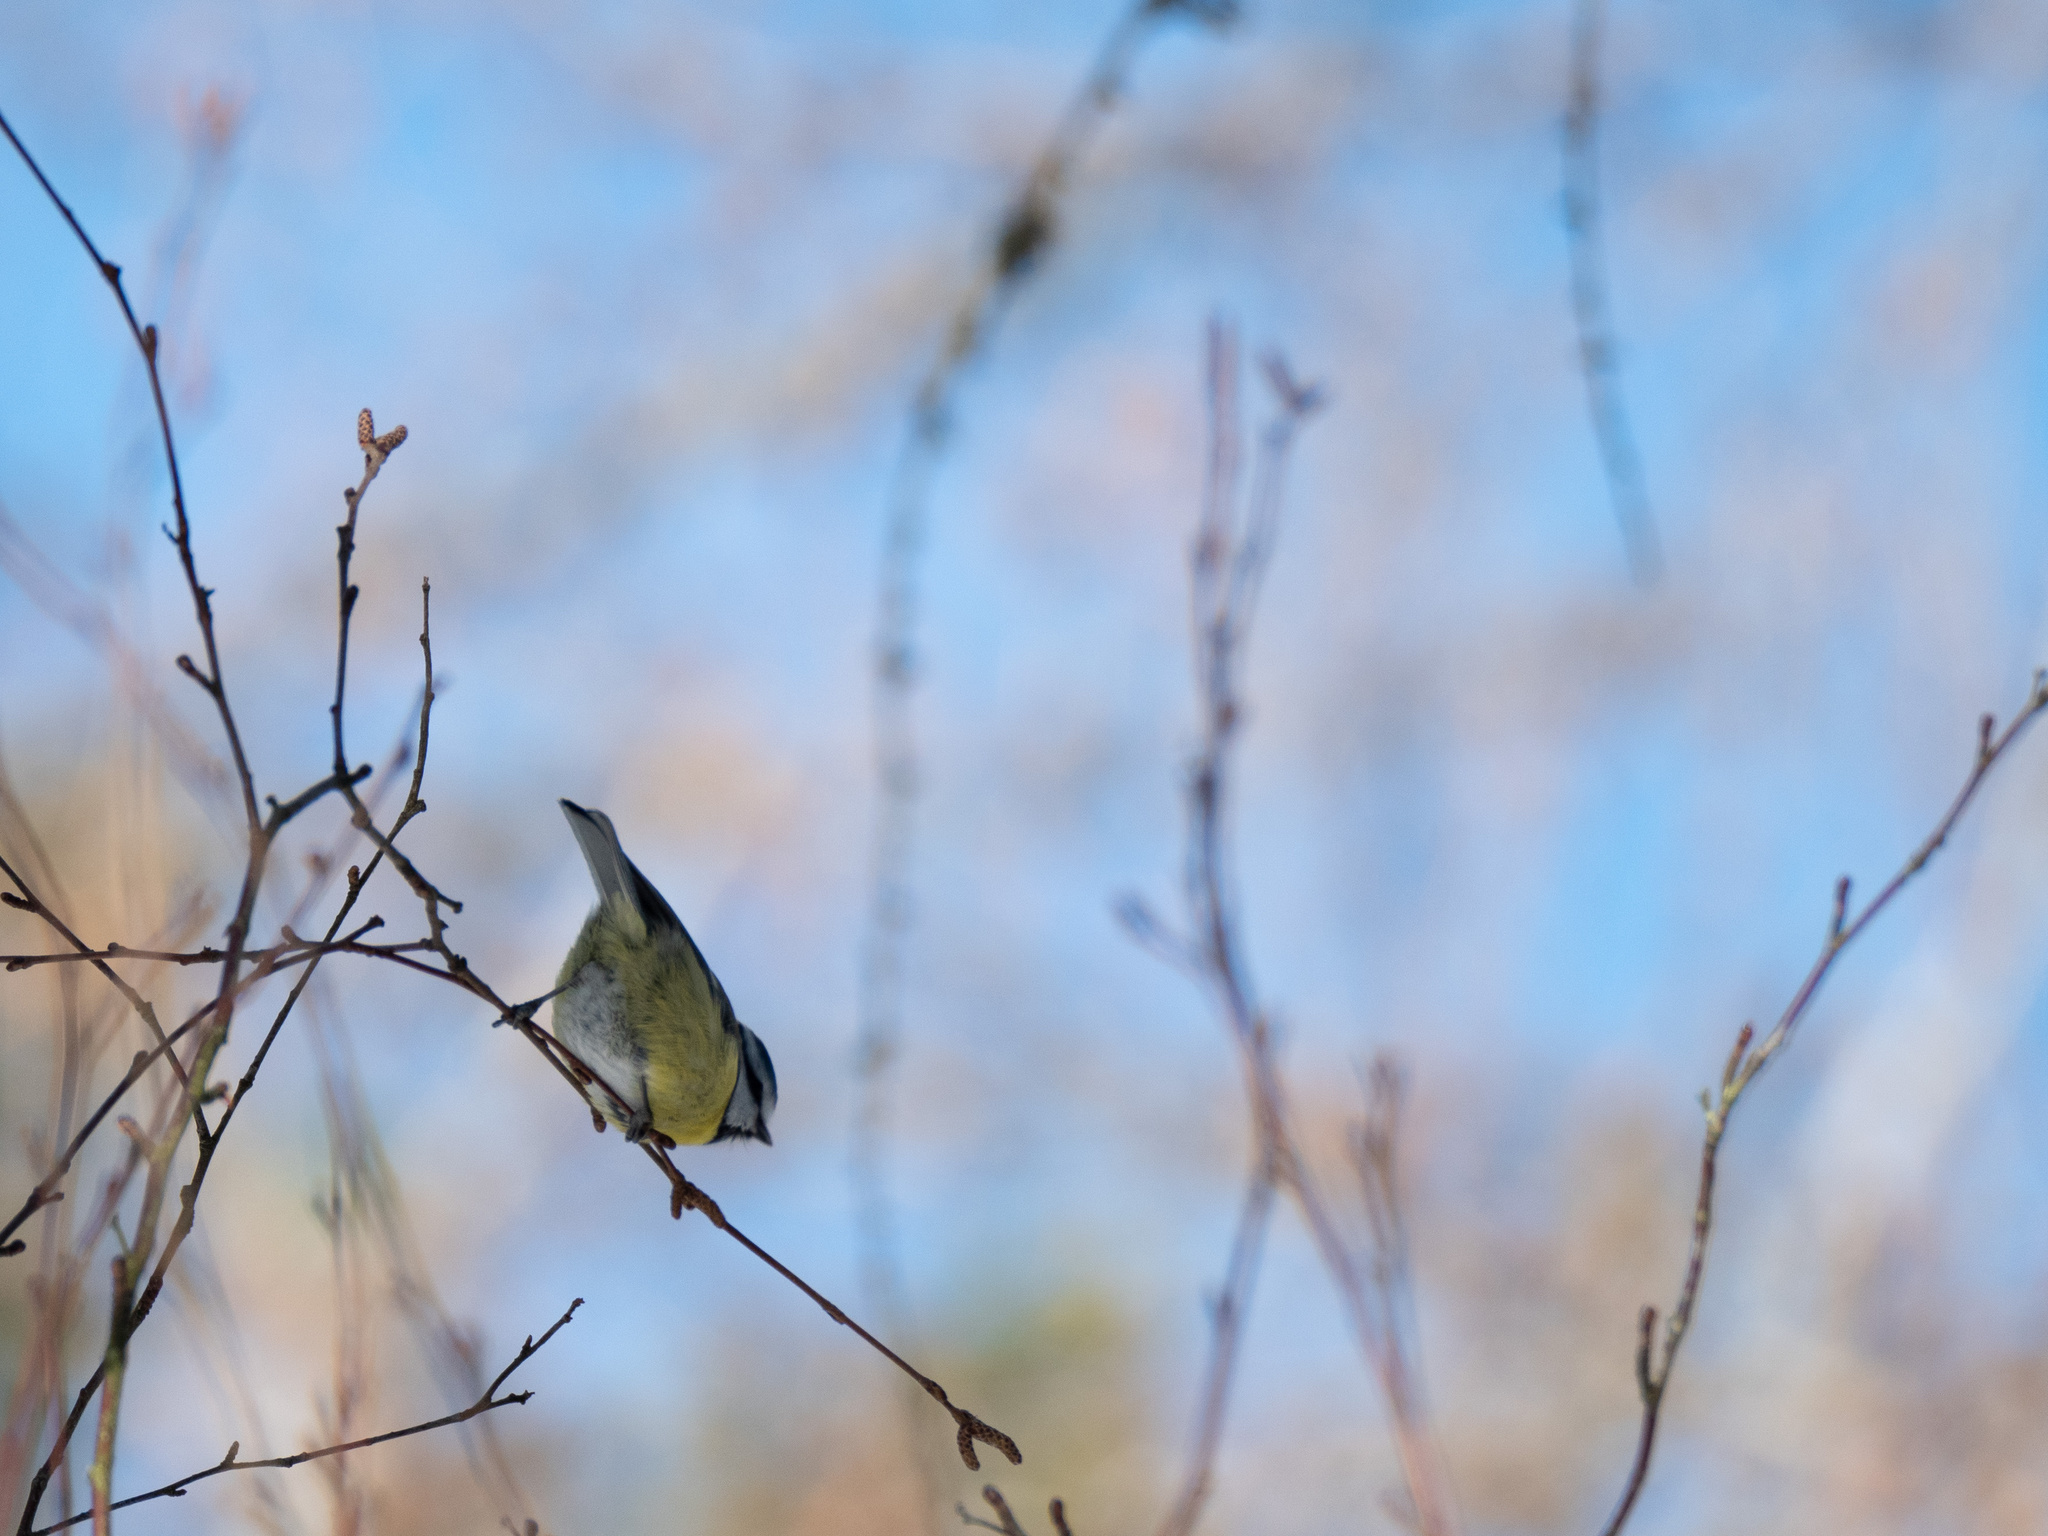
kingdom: Animalia
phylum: Chordata
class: Aves
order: Passeriformes
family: Paridae
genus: Cyanistes
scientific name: Cyanistes caeruleus
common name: Eurasian blue tit
